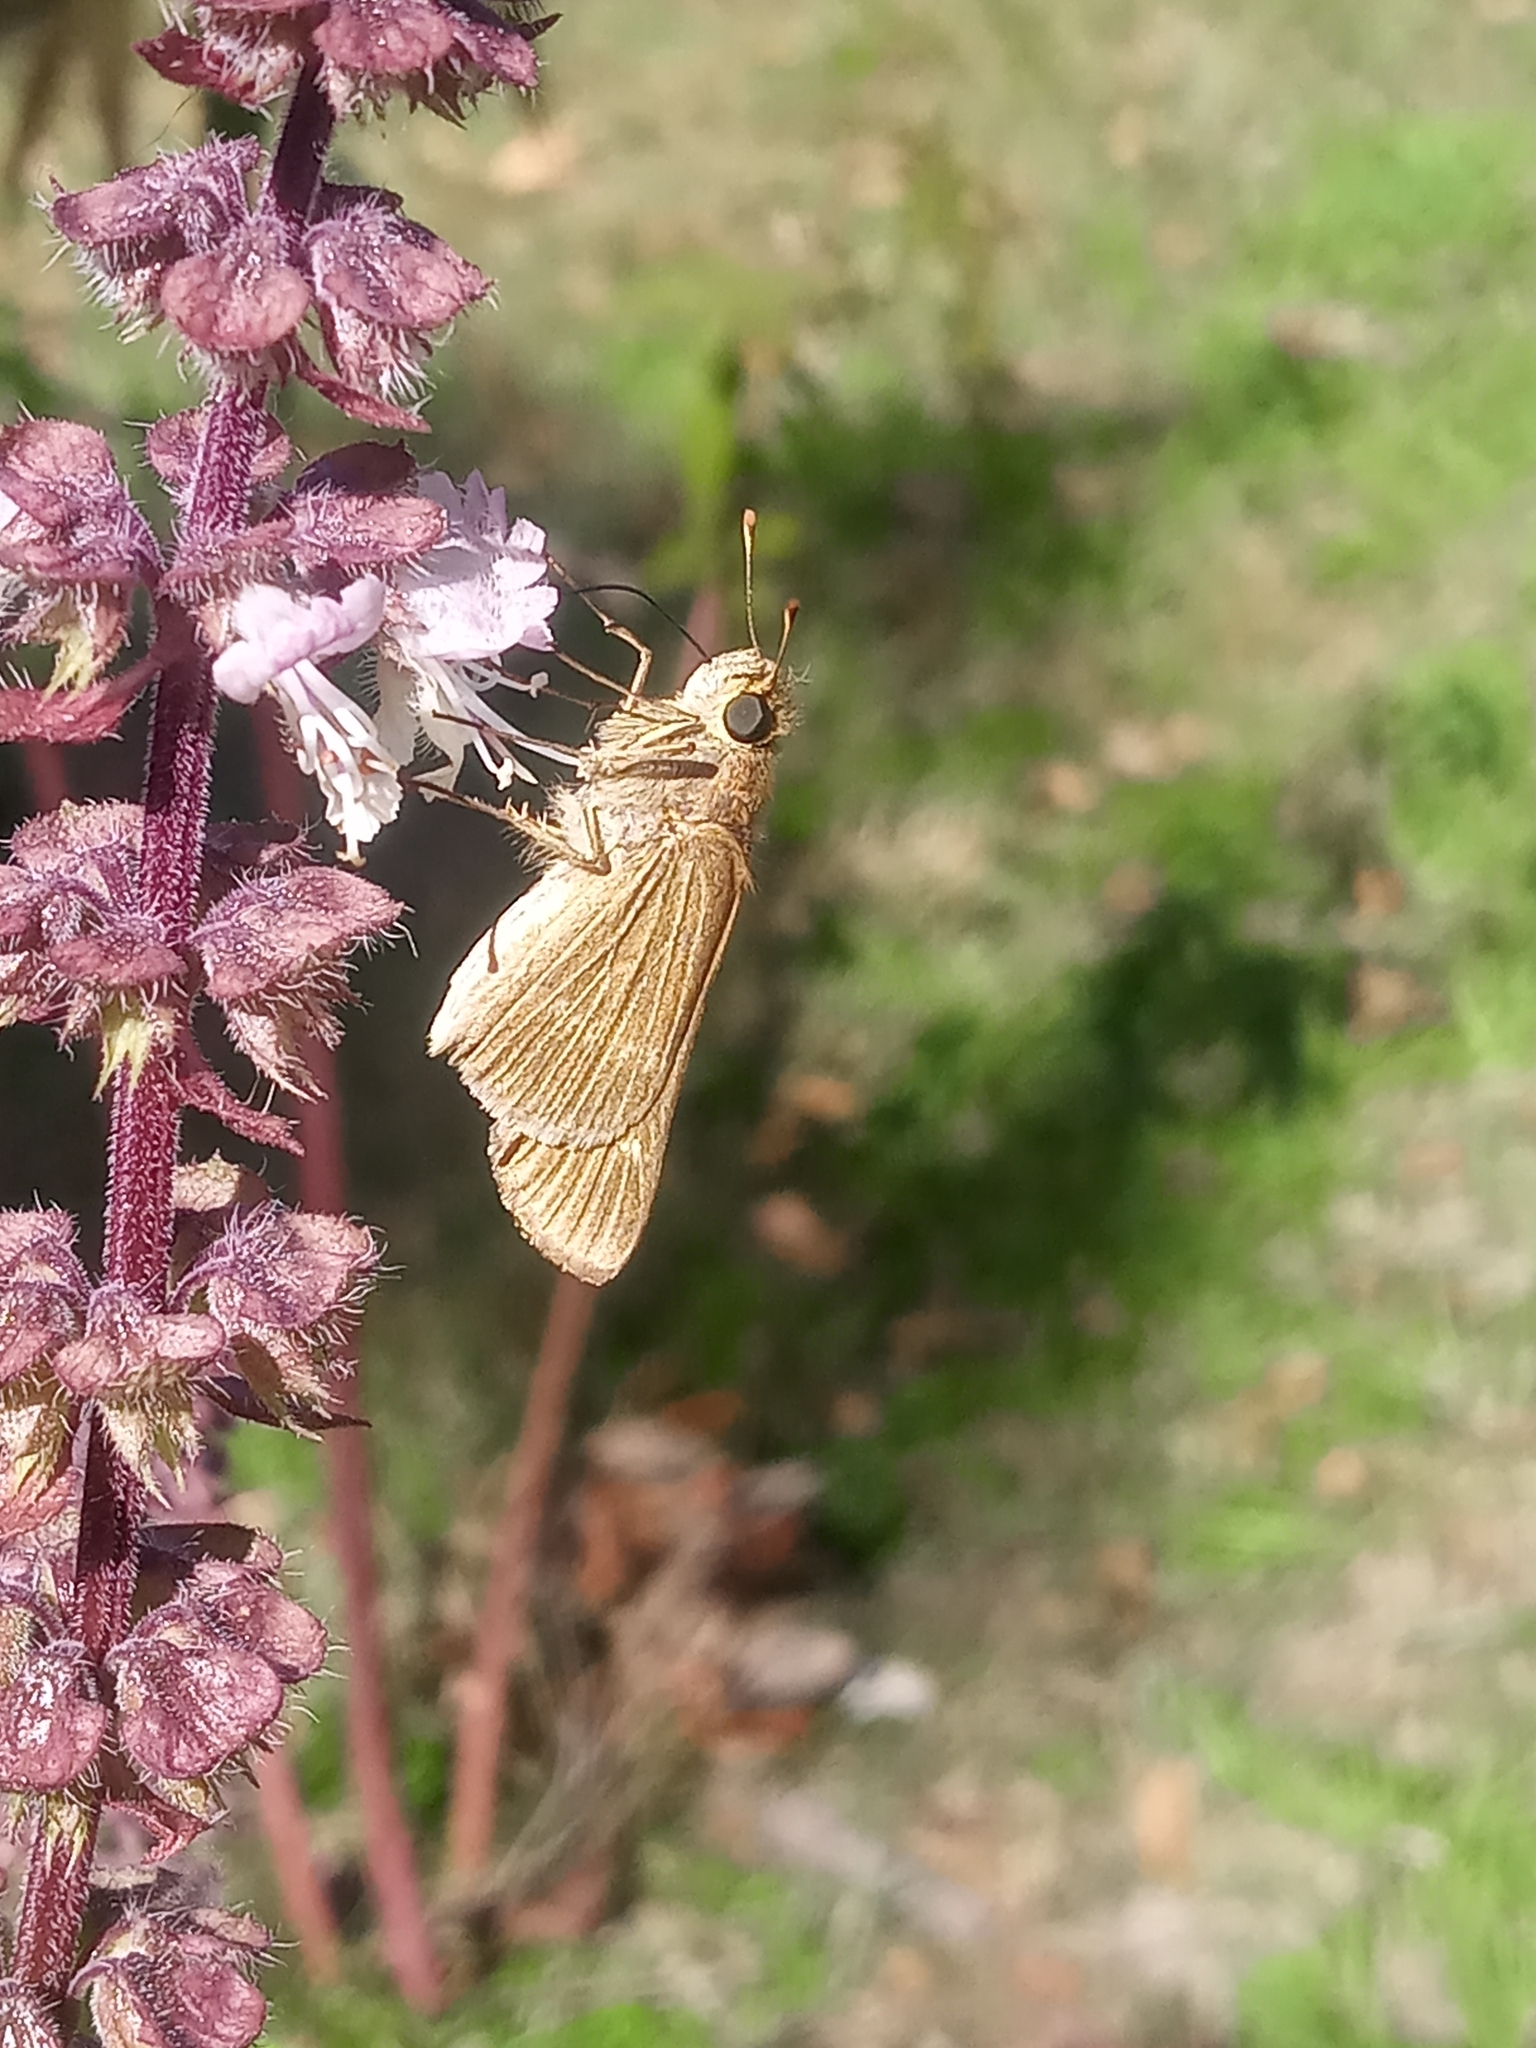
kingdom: Animalia
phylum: Arthropoda
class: Insecta
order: Lepidoptera
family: Hesperiidae
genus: Panoquina
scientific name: Panoquina ocola
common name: Ocola skipper
